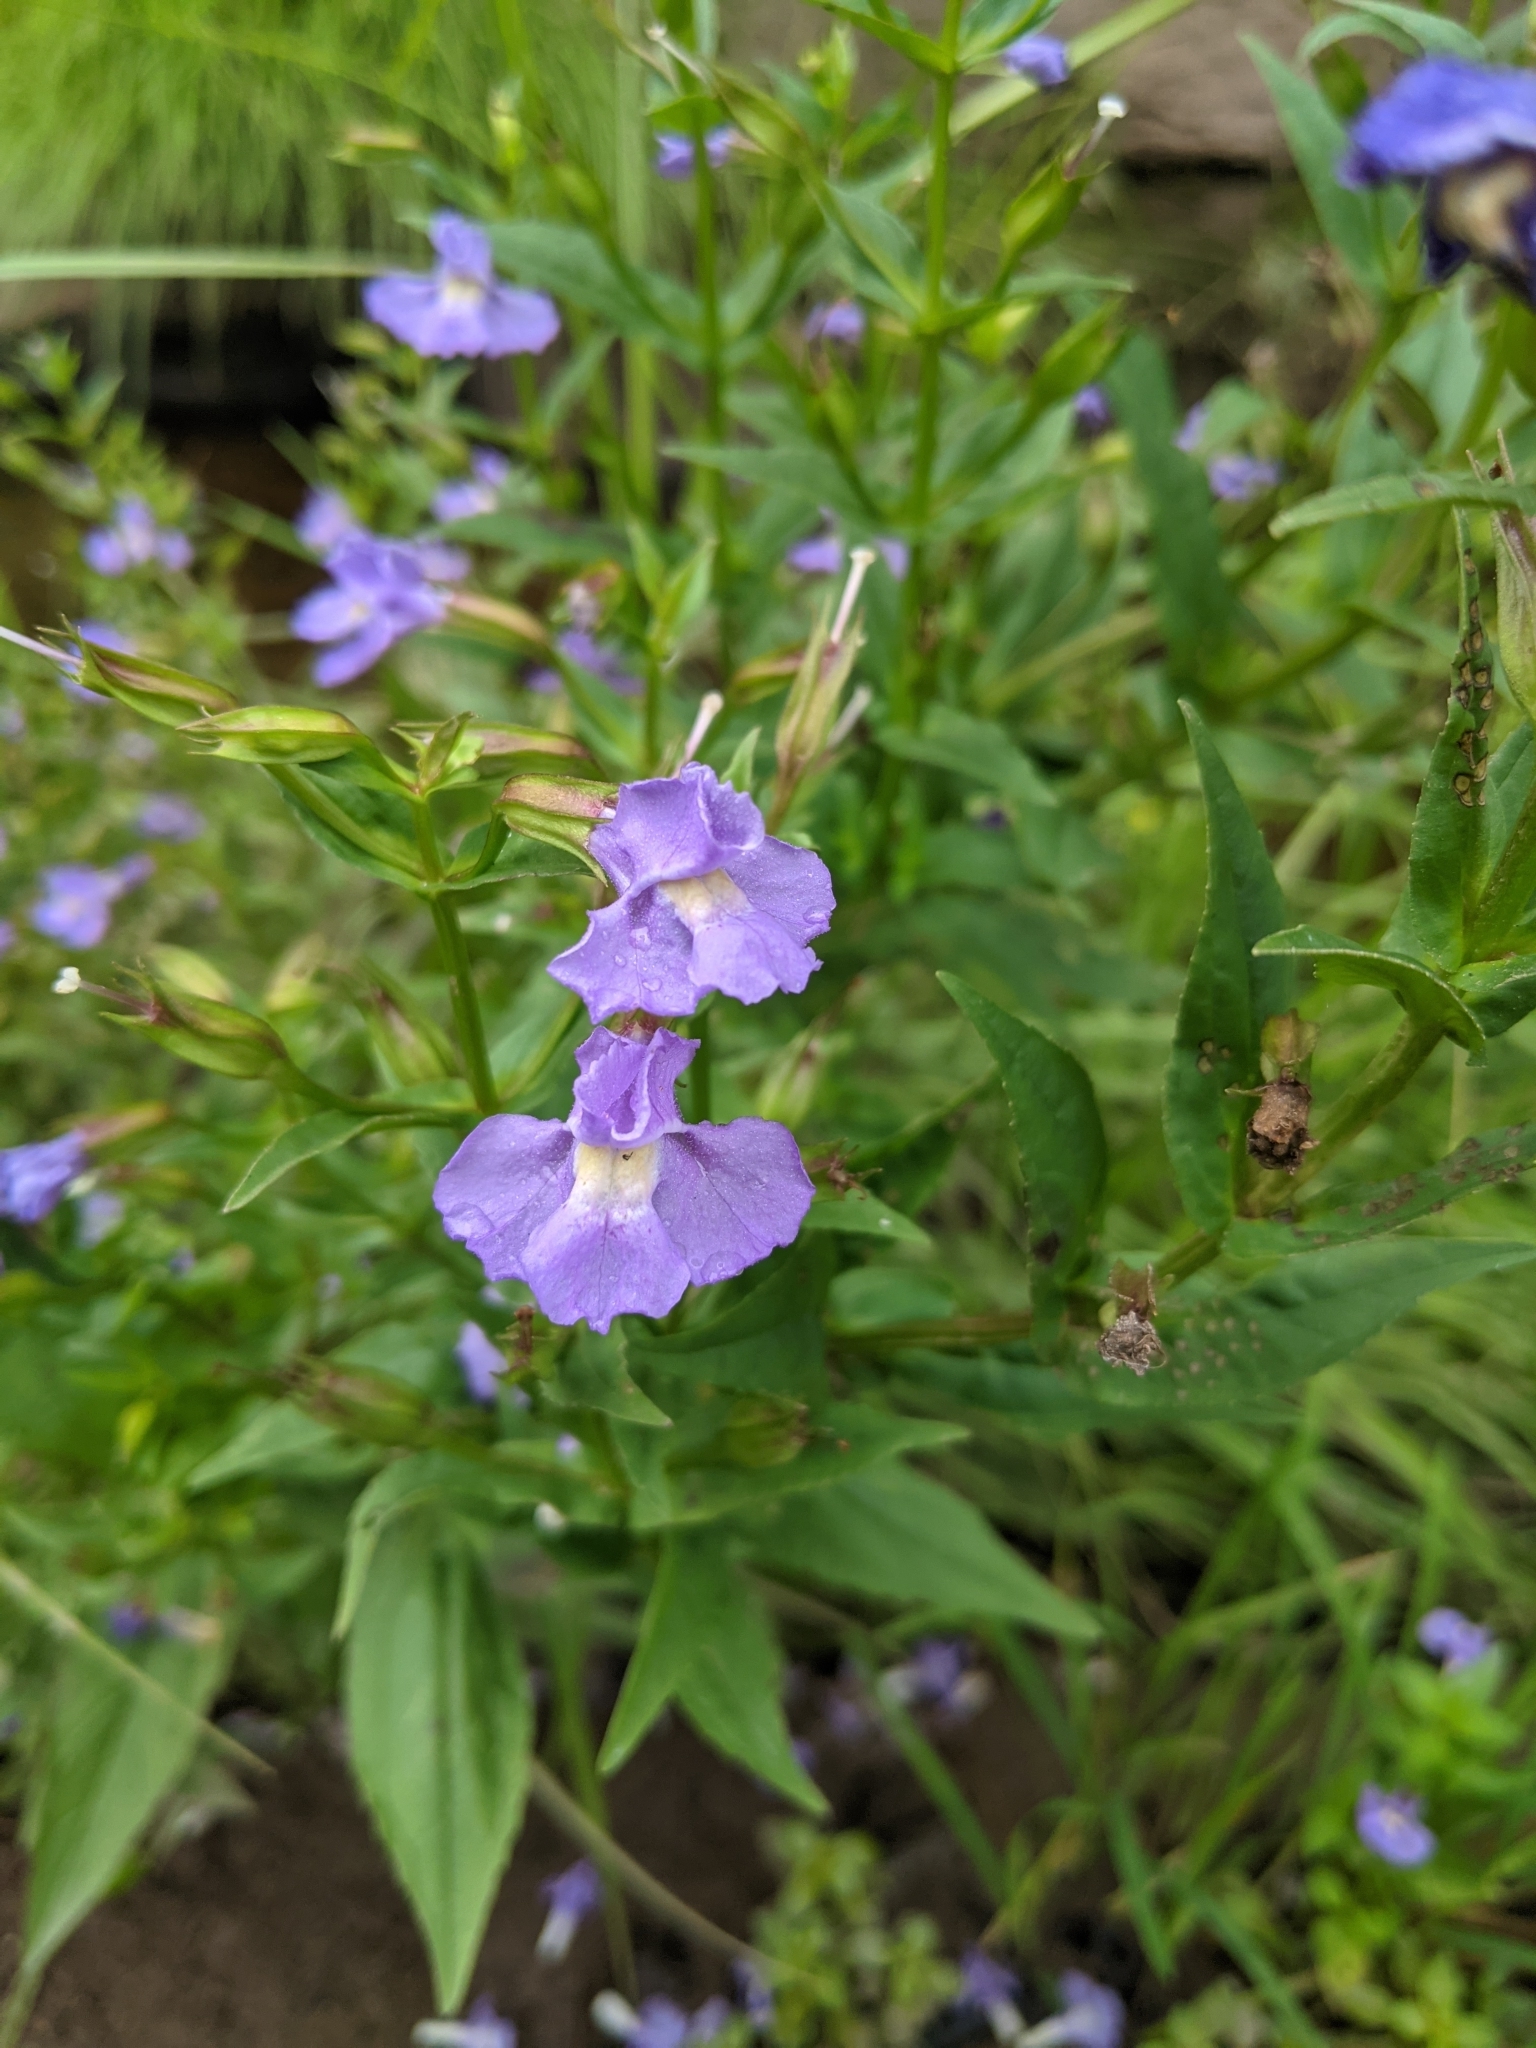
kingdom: Plantae
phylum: Tracheophyta
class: Magnoliopsida
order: Lamiales
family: Phrymaceae
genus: Mimulus
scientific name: Mimulus ringens
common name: Allegheny monkeyflower
